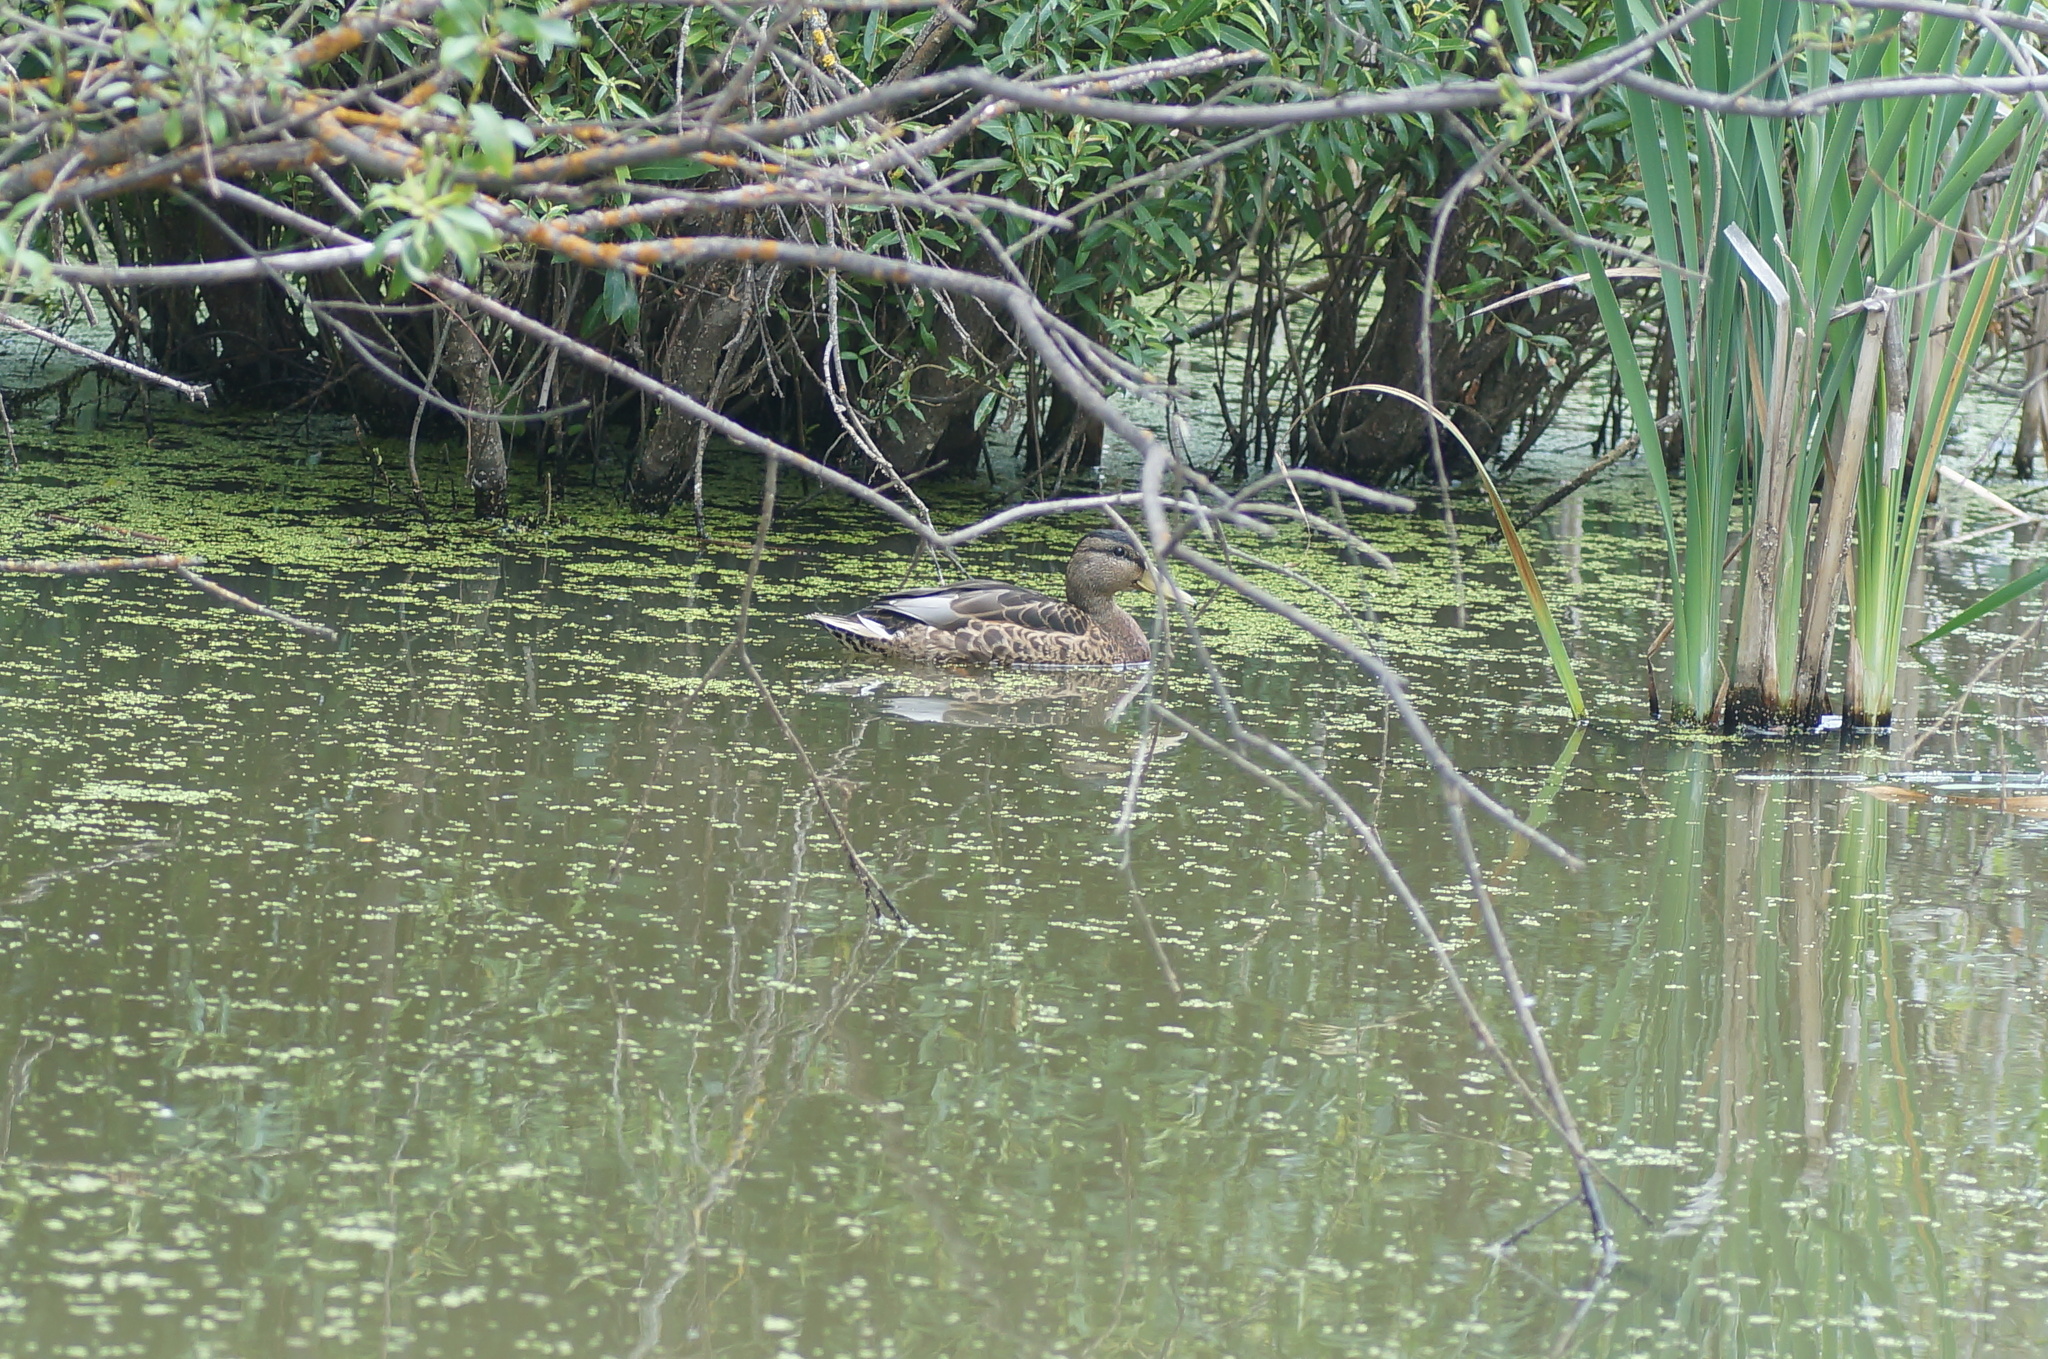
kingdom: Animalia
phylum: Chordata
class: Aves
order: Anseriformes
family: Anatidae
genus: Anas
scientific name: Anas platyrhynchos
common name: Mallard
